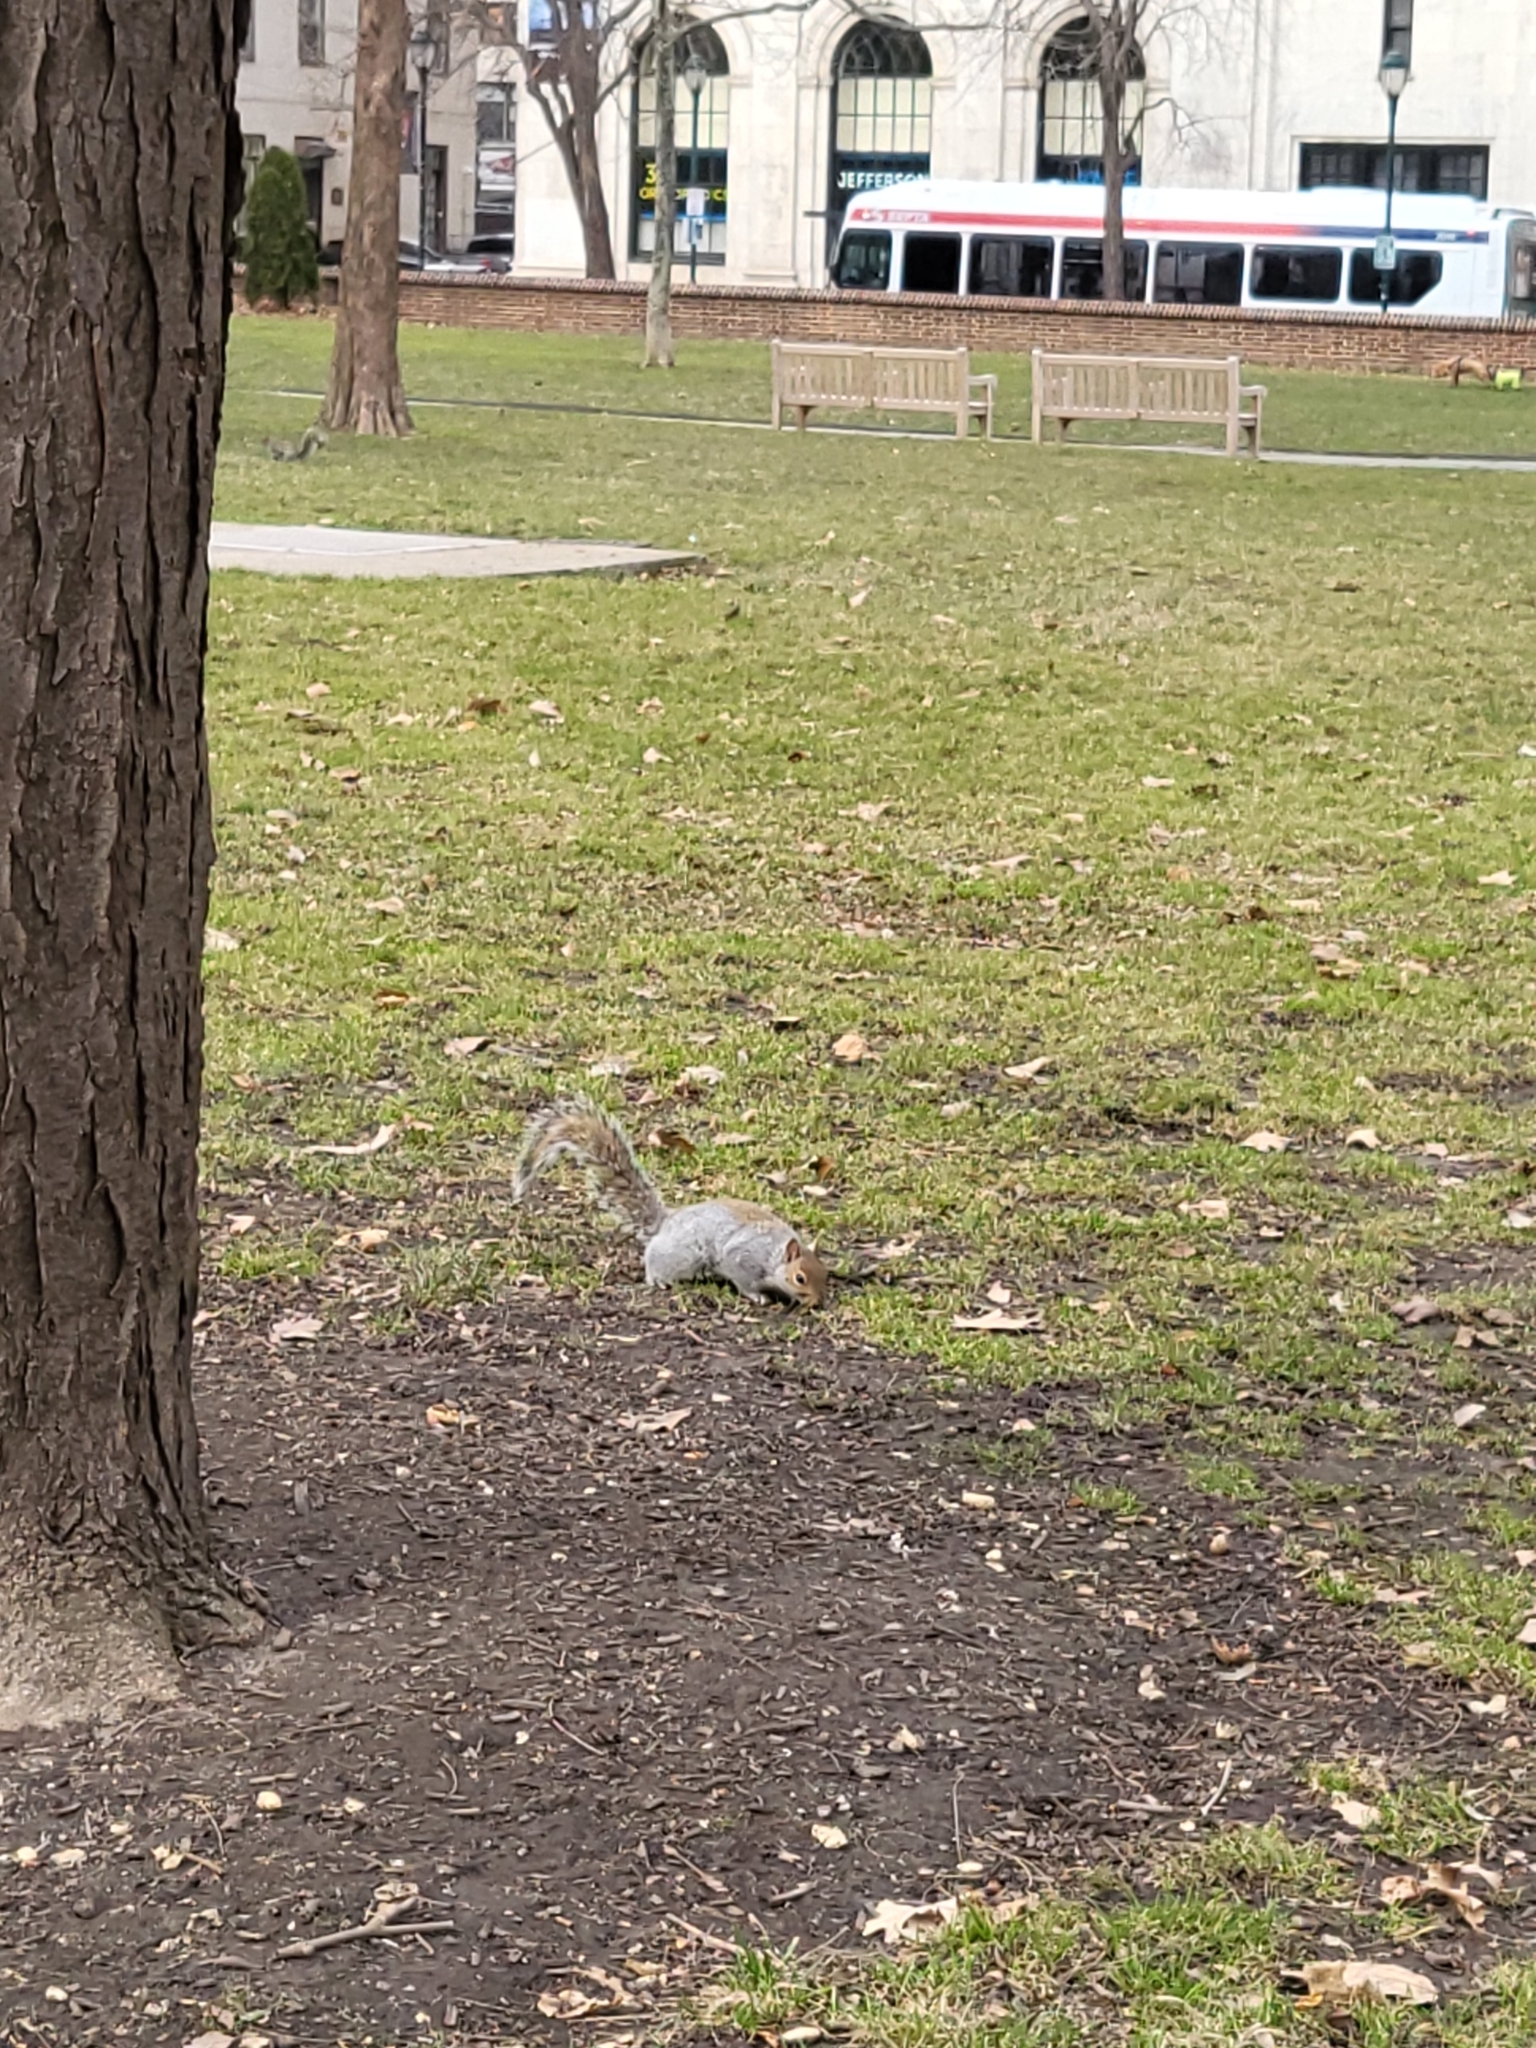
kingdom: Animalia
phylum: Chordata
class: Mammalia
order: Rodentia
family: Sciuridae
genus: Sciurus
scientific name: Sciurus carolinensis
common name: Eastern gray squirrel
